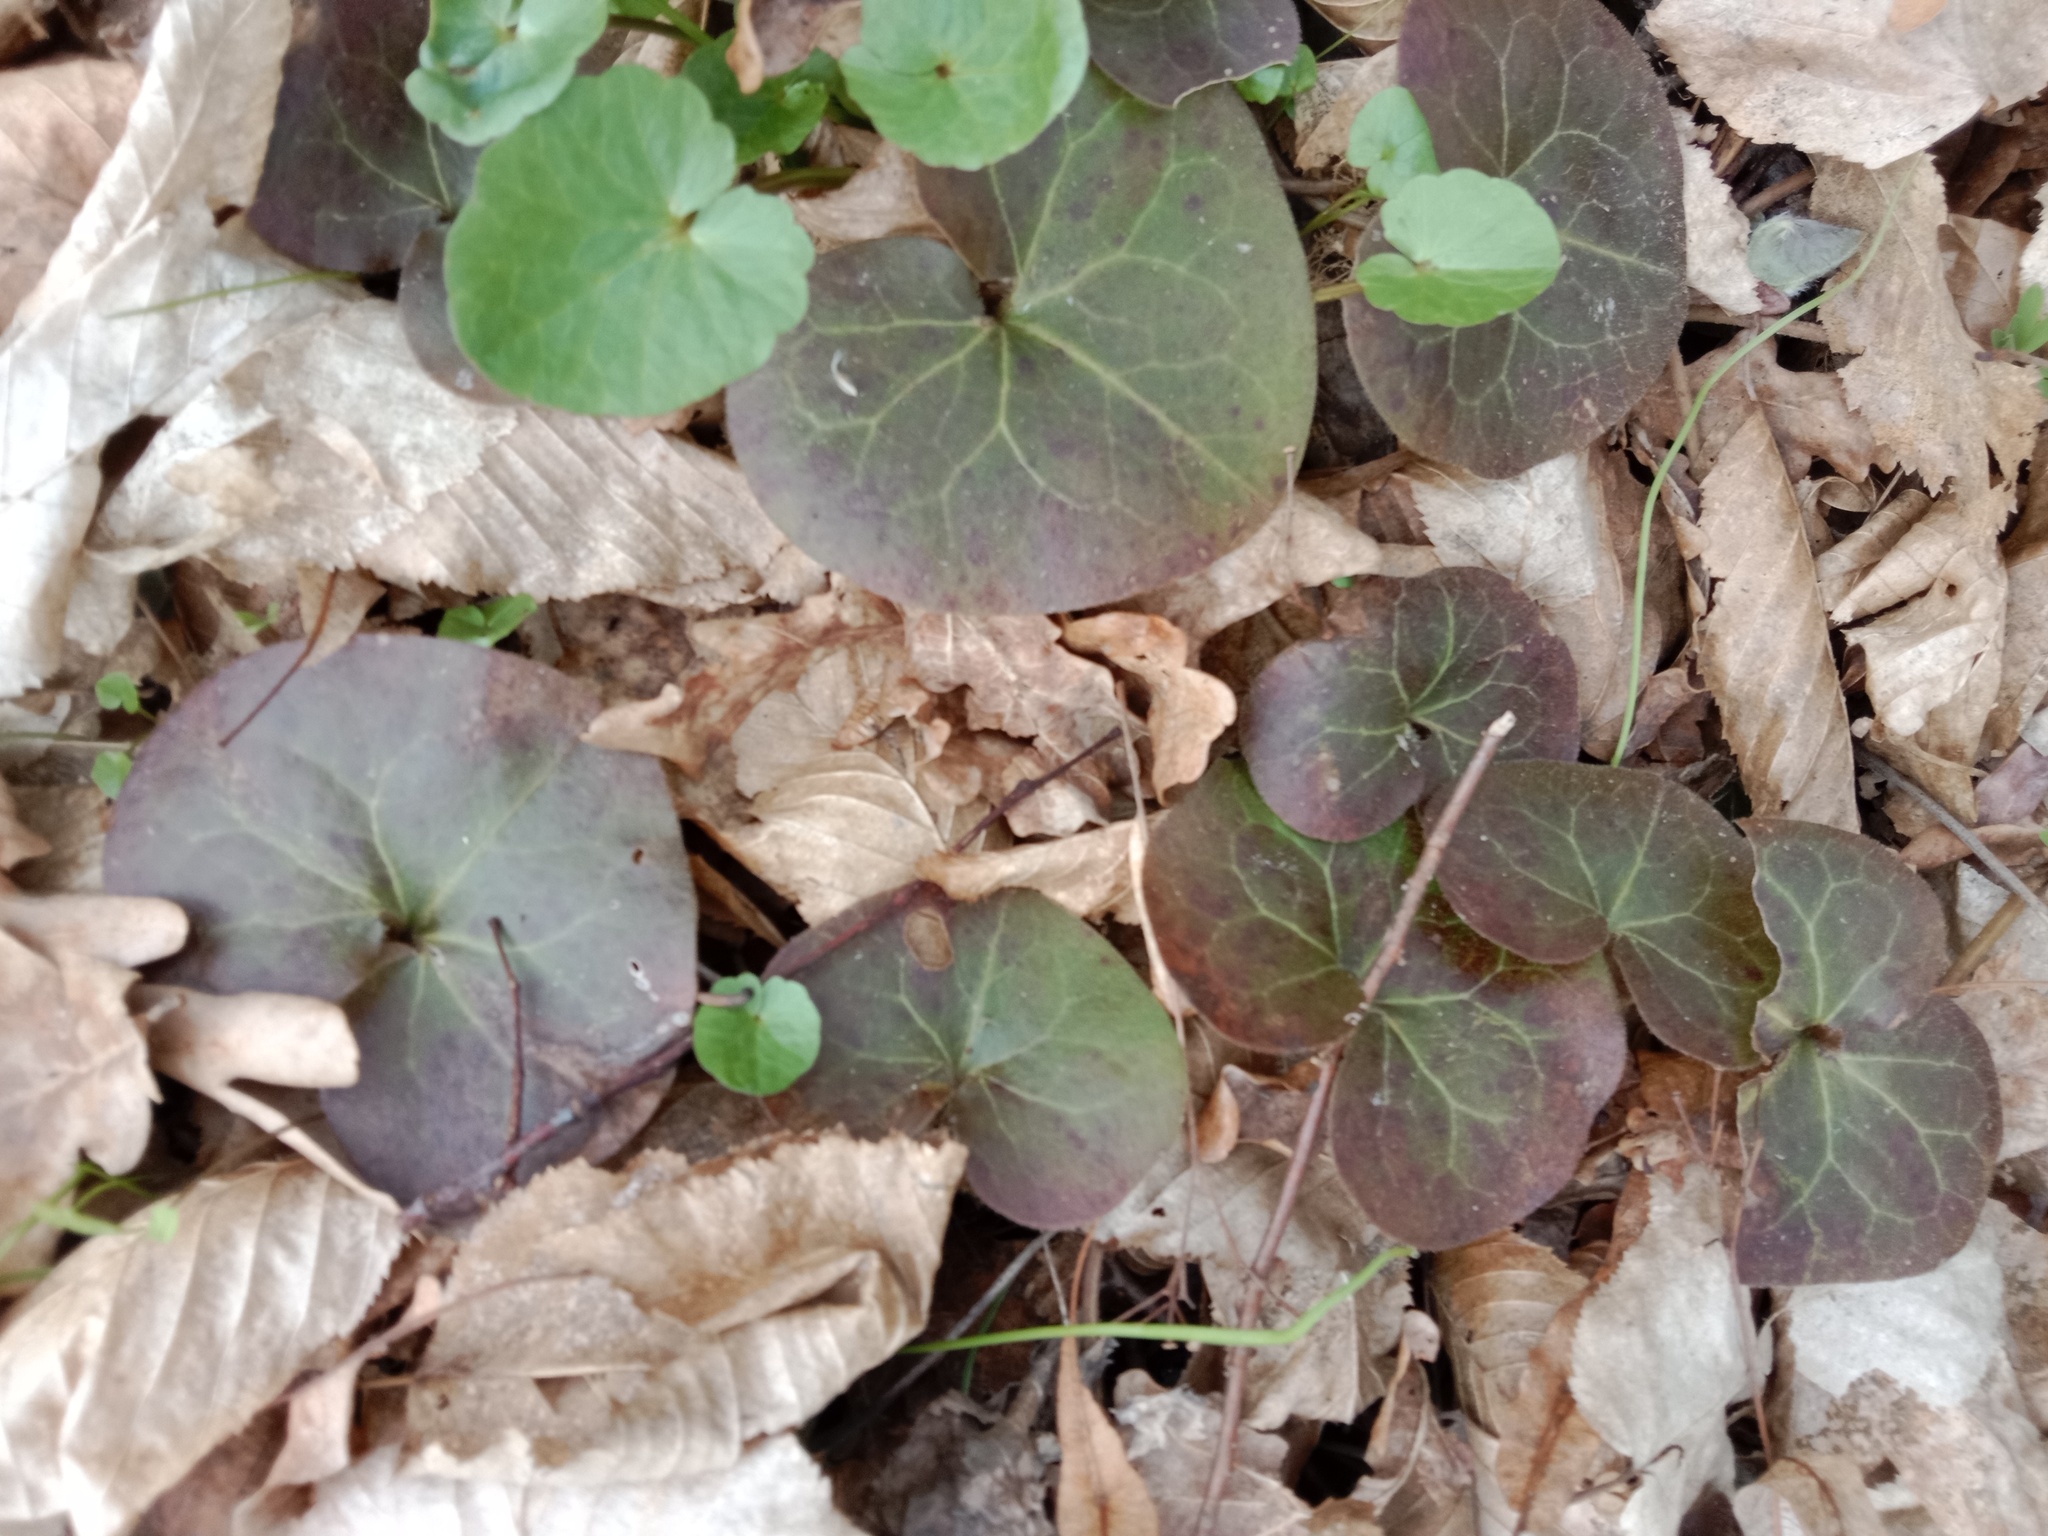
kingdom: Plantae
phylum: Tracheophyta
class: Magnoliopsida
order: Piperales
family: Aristolochiaceae
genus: Asarum
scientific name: Asarum europaeum
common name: Asarabacca
